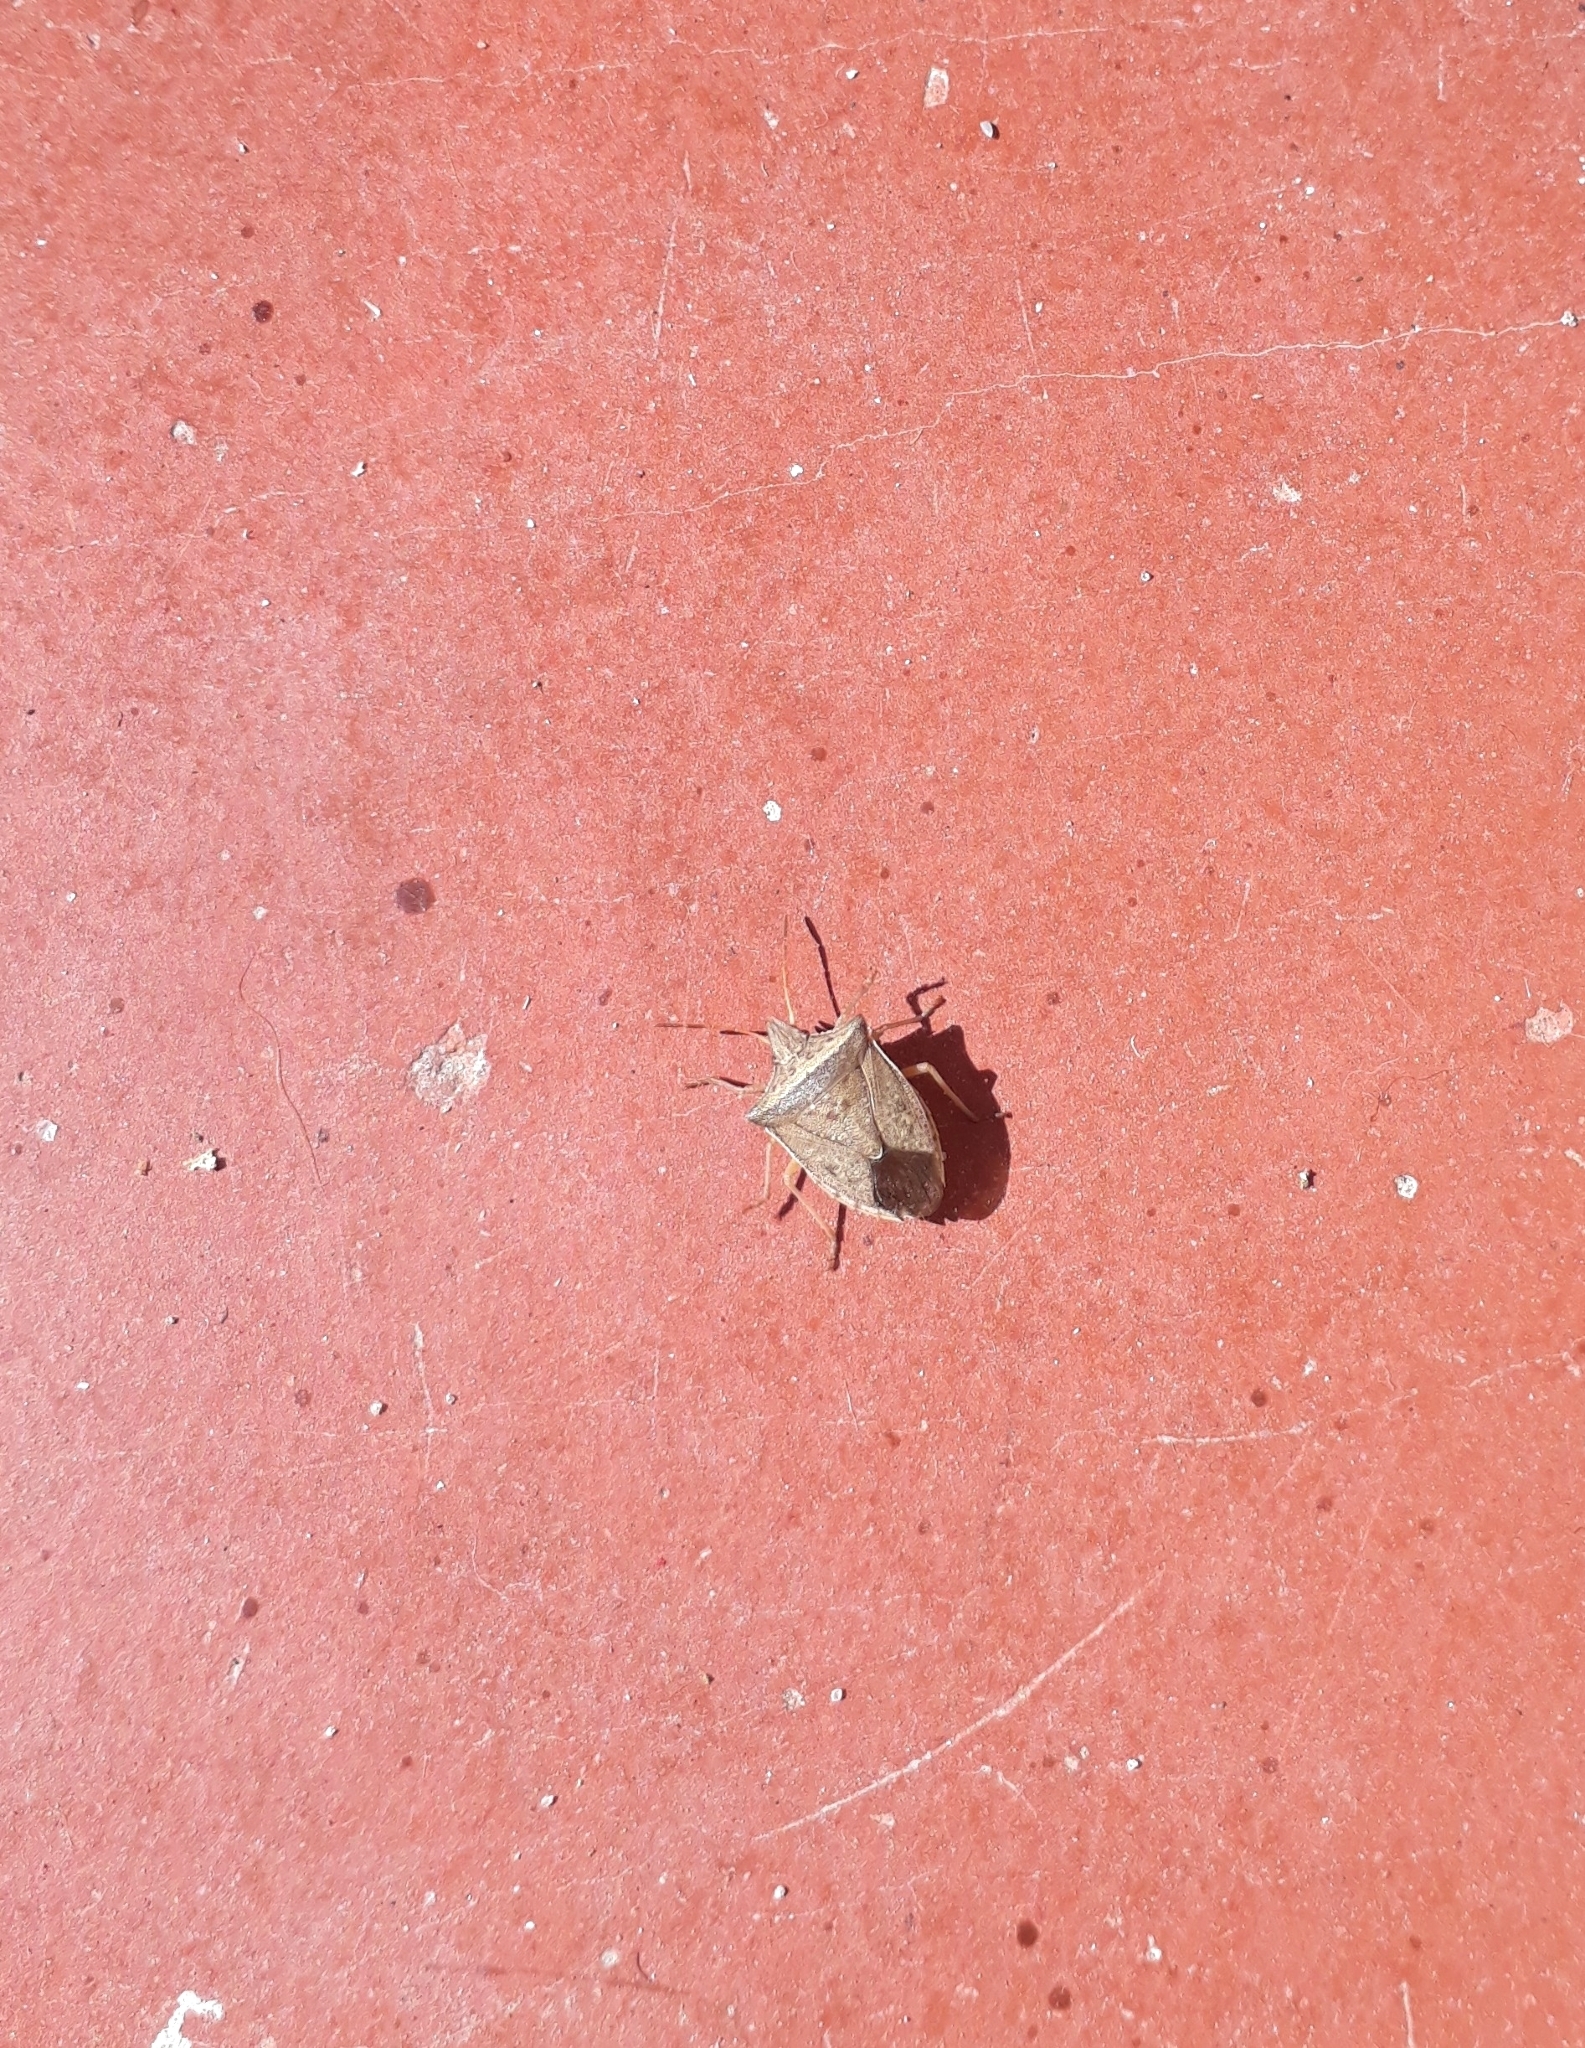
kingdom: Animalia
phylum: Arthropoda
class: Insecta
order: Hemiptera
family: Pentatomidae
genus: Diceraeus
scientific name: Diceraeus furcatus
